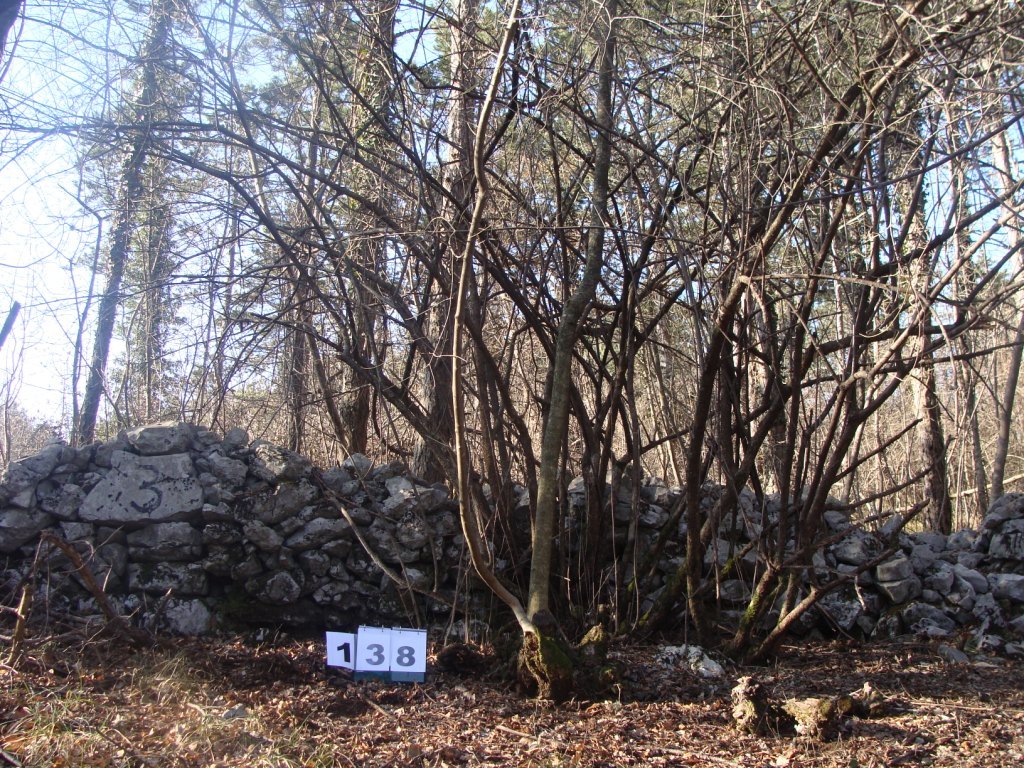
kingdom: Plantae
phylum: Tracheophyta
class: Magnoliopsida
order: Cornales
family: Cornaceae
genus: Cornus
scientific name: Cornus mas
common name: Cornelian-cherry
